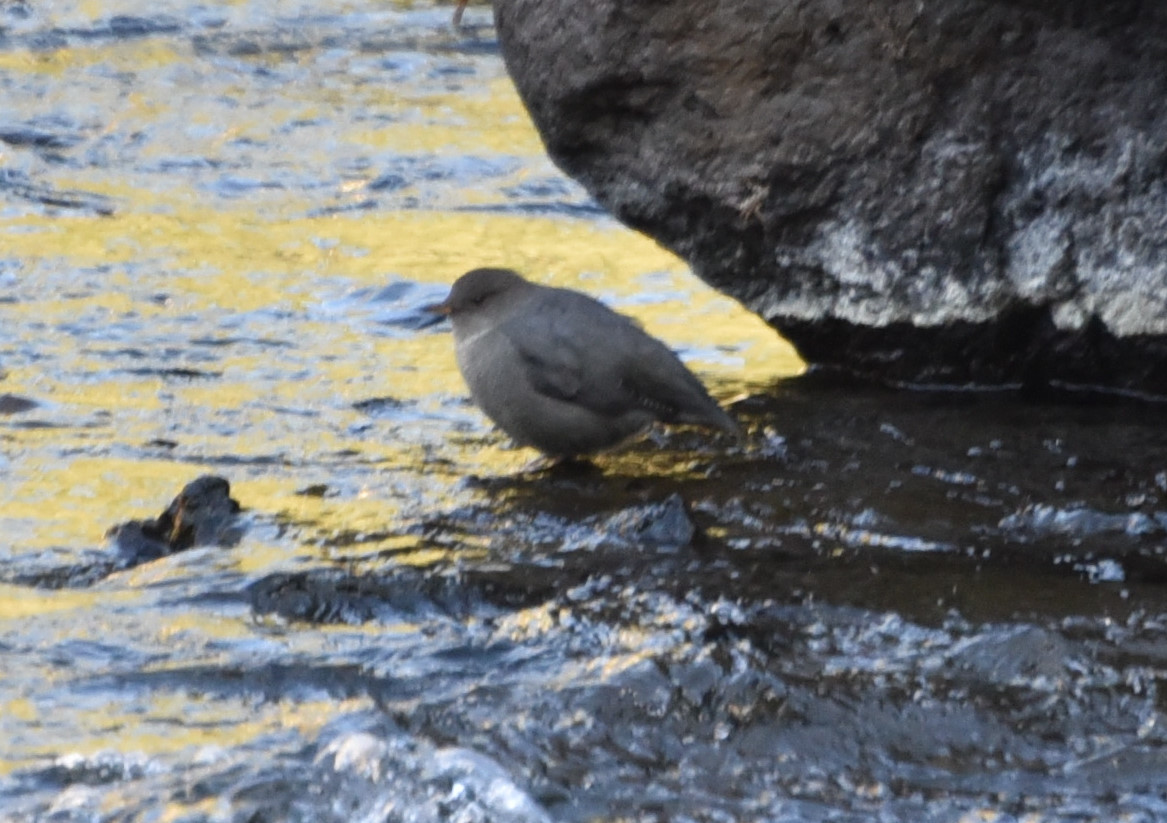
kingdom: Animalia
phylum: Chordata
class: Aves
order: Passeriformes
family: Cinclidae
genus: Cinclus
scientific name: Cinclus mexicanus
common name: American dipper
